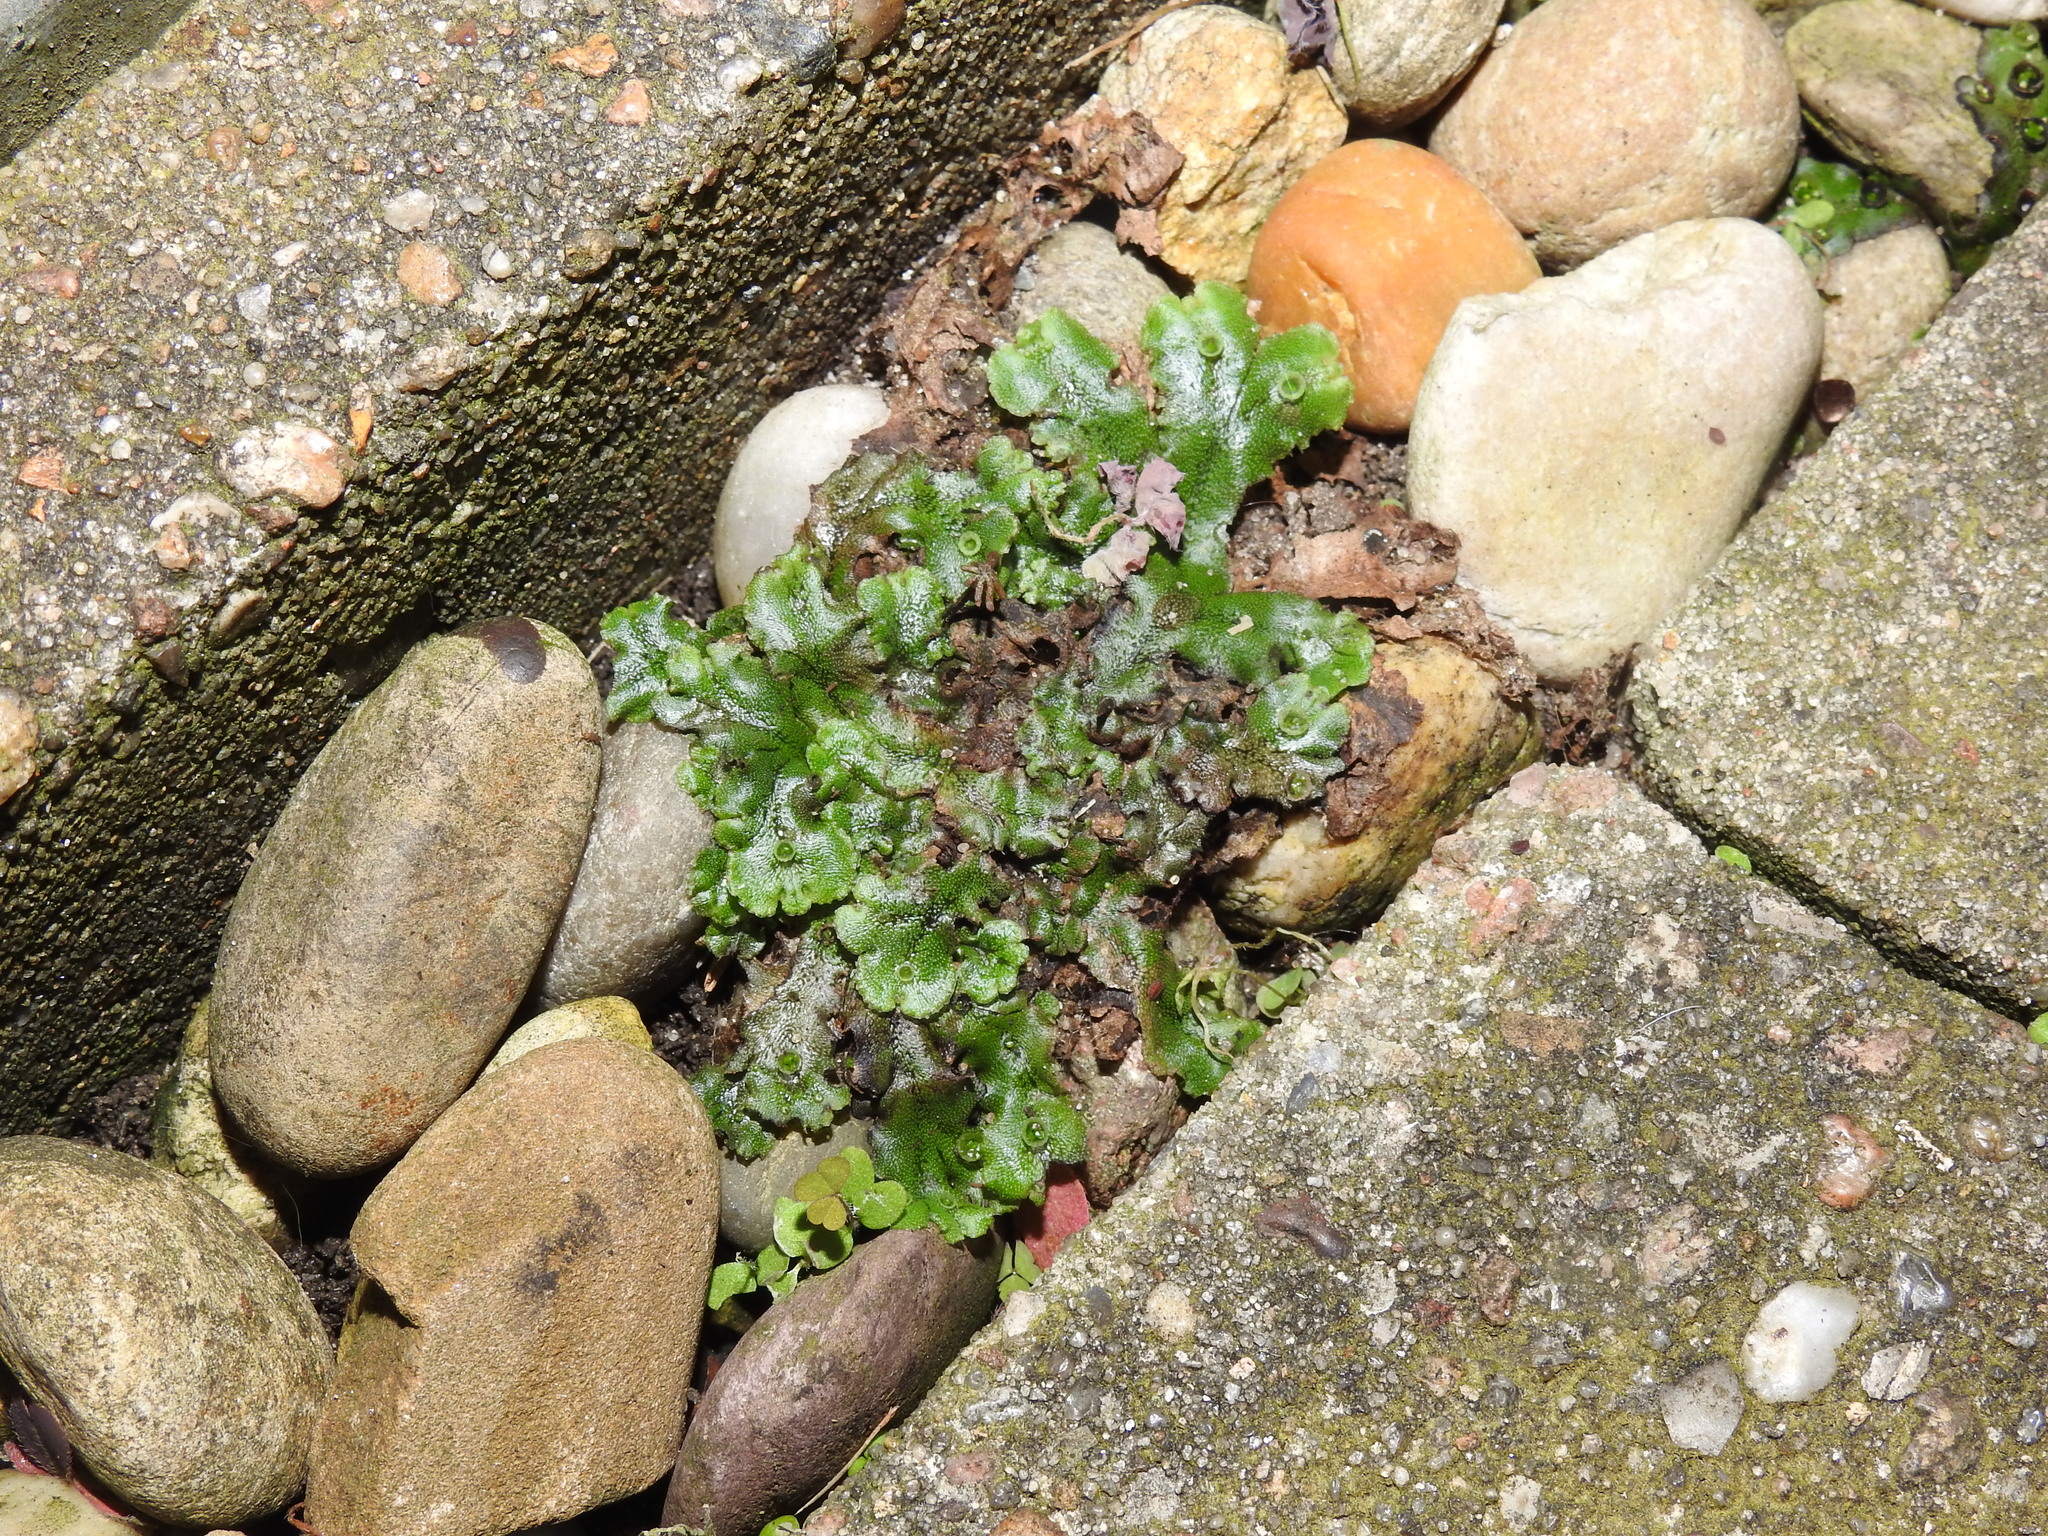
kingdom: Plantae
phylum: Marchantiophyta
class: Marchantiopsida
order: Marchantiales
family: Marchantiaceae
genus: Marchantia
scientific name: Marchantia polymorpha
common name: Common liverwort
